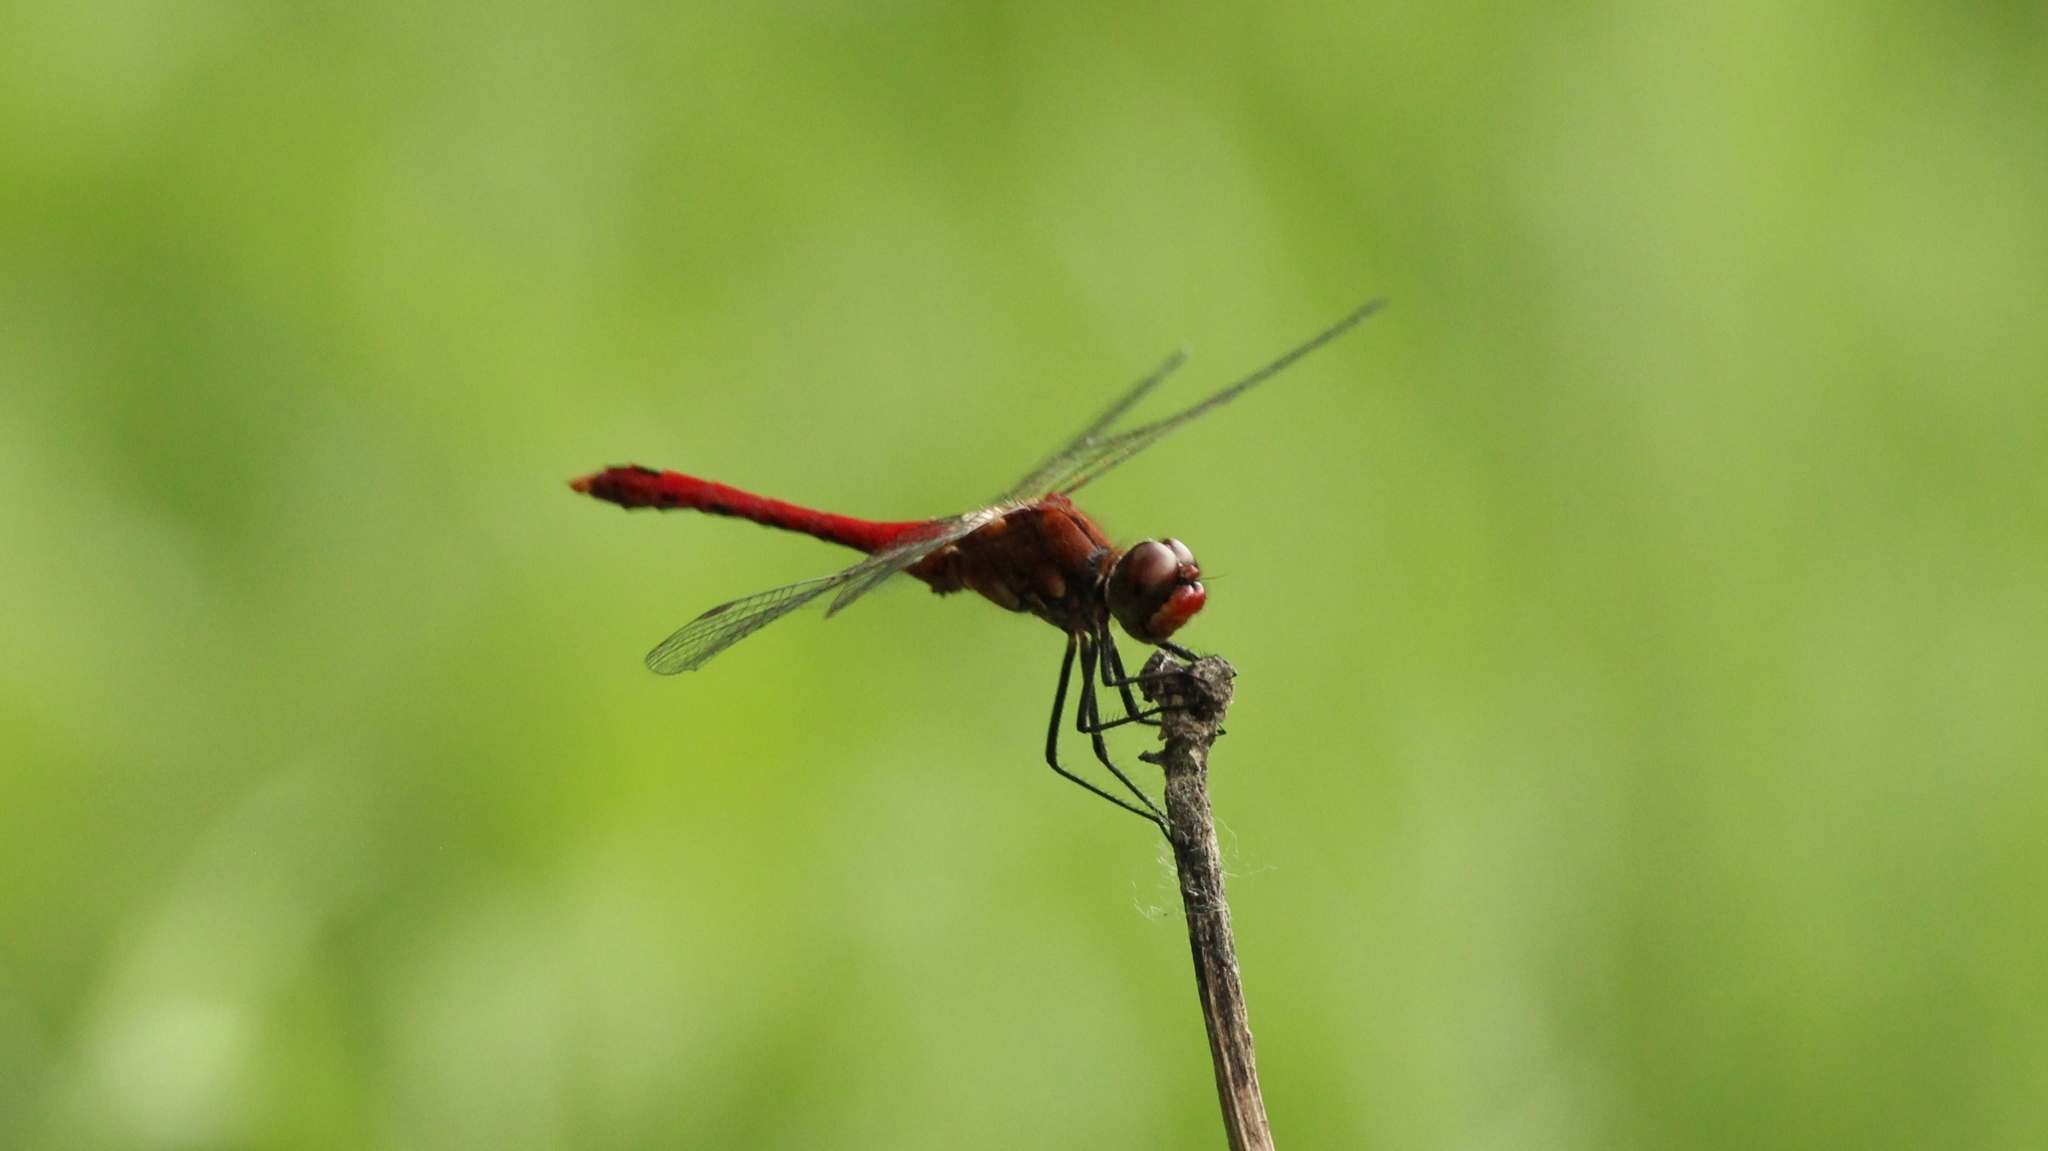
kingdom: Animalia
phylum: Arthropoda
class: Insecta
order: Odonata
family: Libellulidae
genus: Sympetrum
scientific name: Sympetrum sanguineum
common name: Ruddy darter
